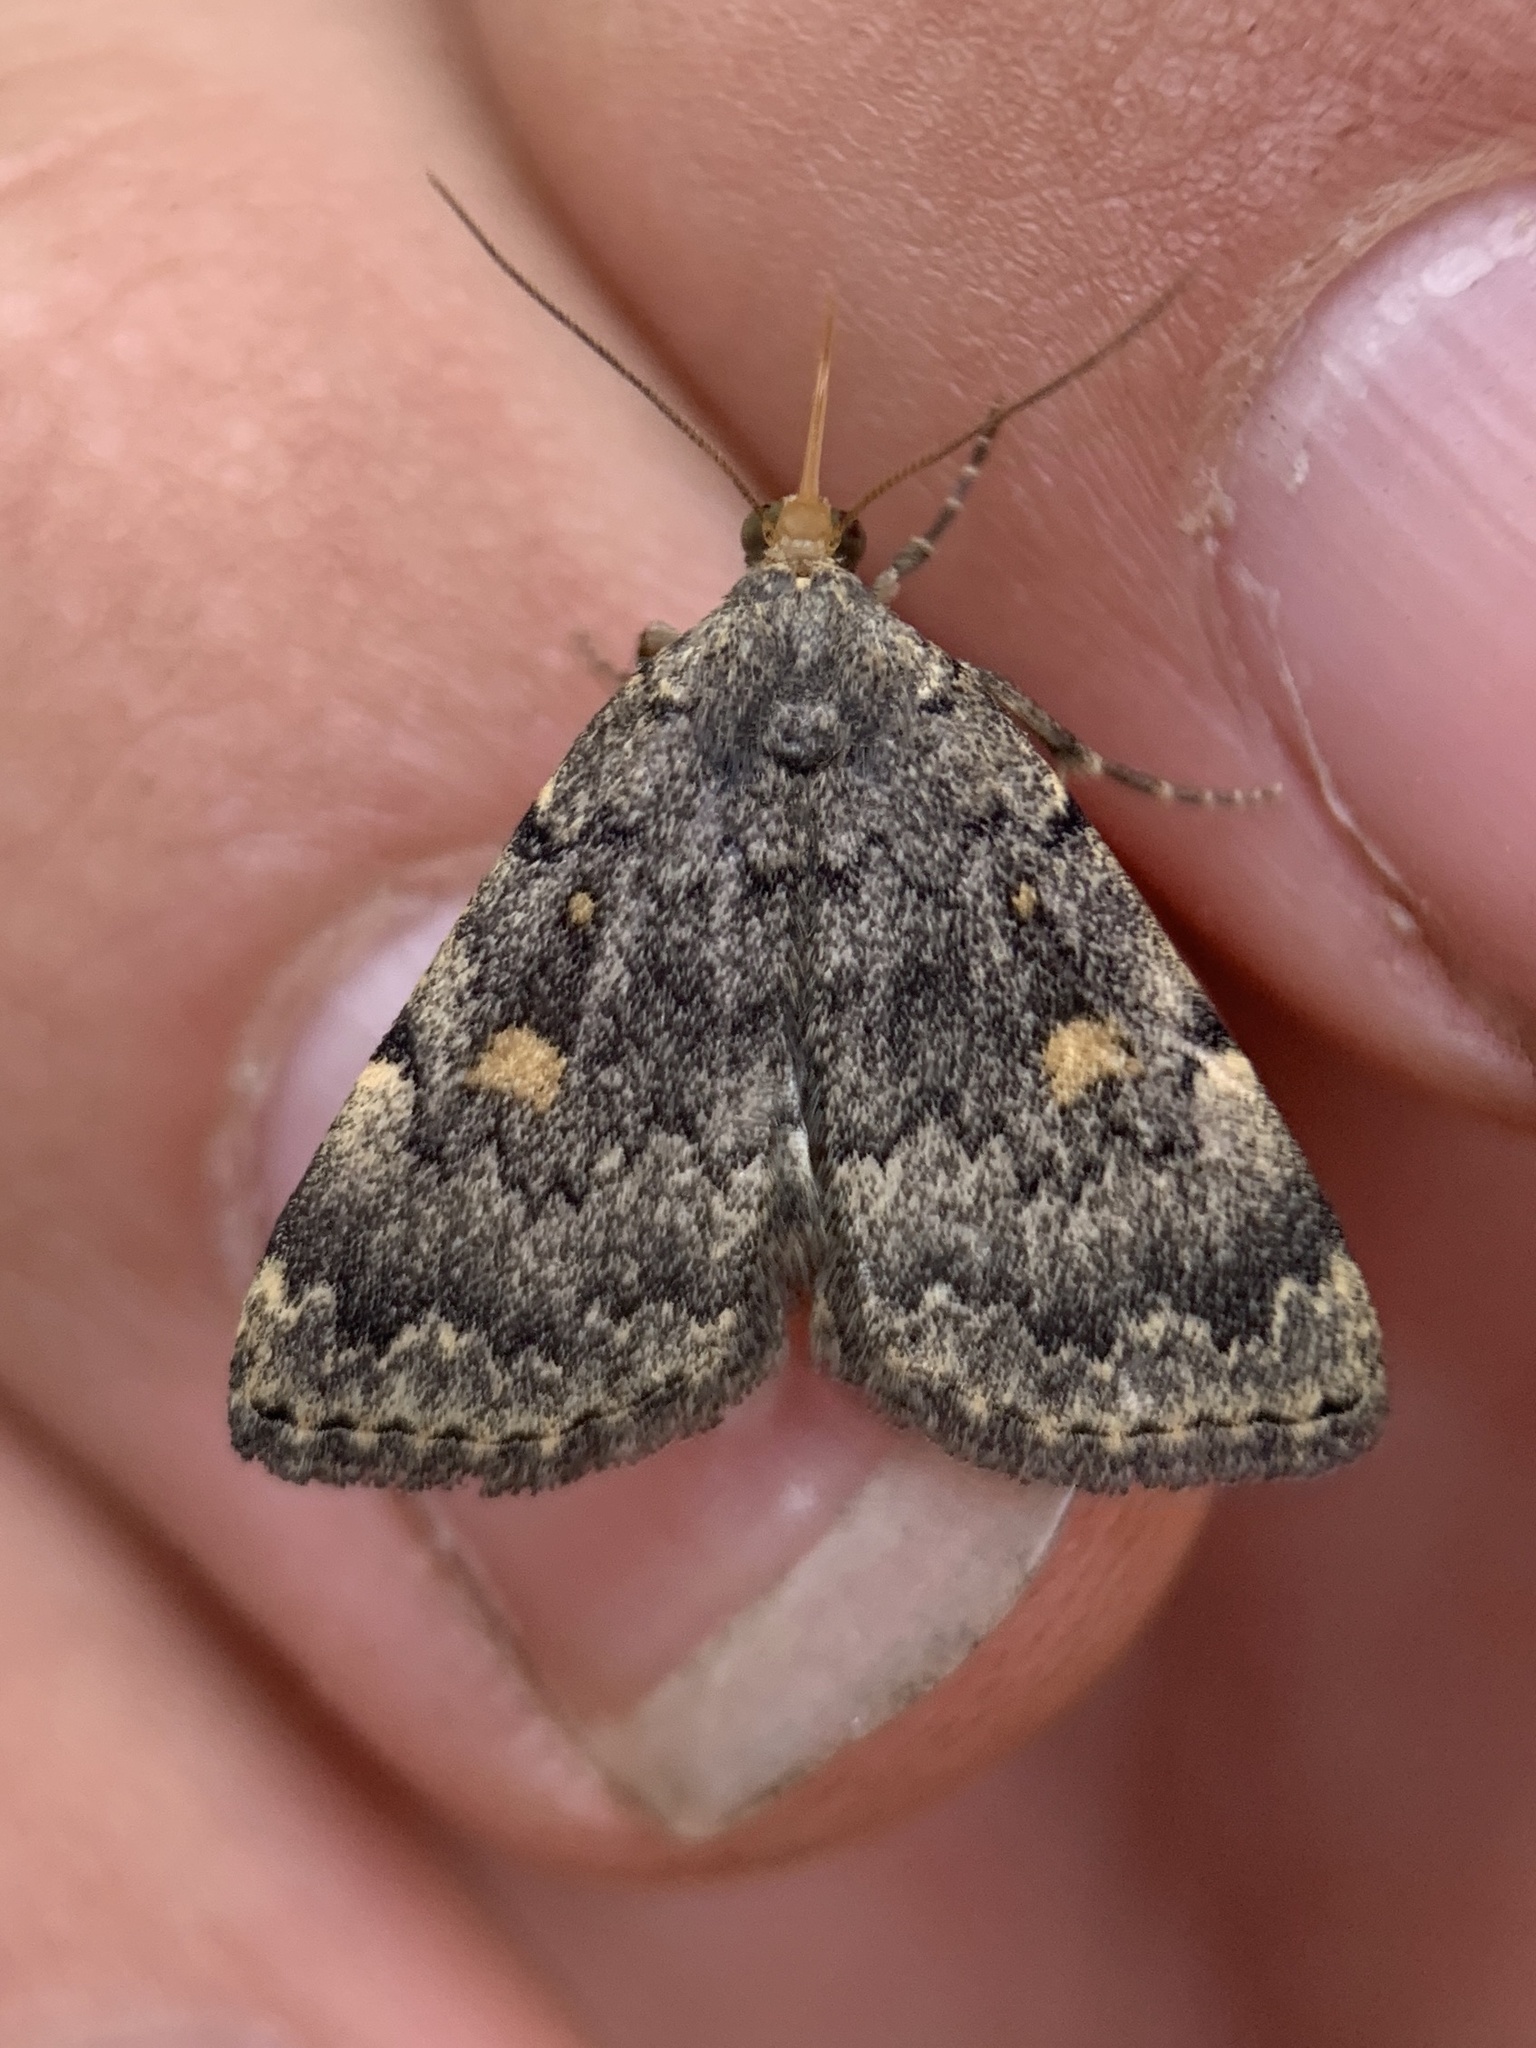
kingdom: Animalia
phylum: Arthropoda
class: Insecta
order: Lepidoptera
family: Erebidae
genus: Idia
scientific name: Idia aemula
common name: Common idia moth
